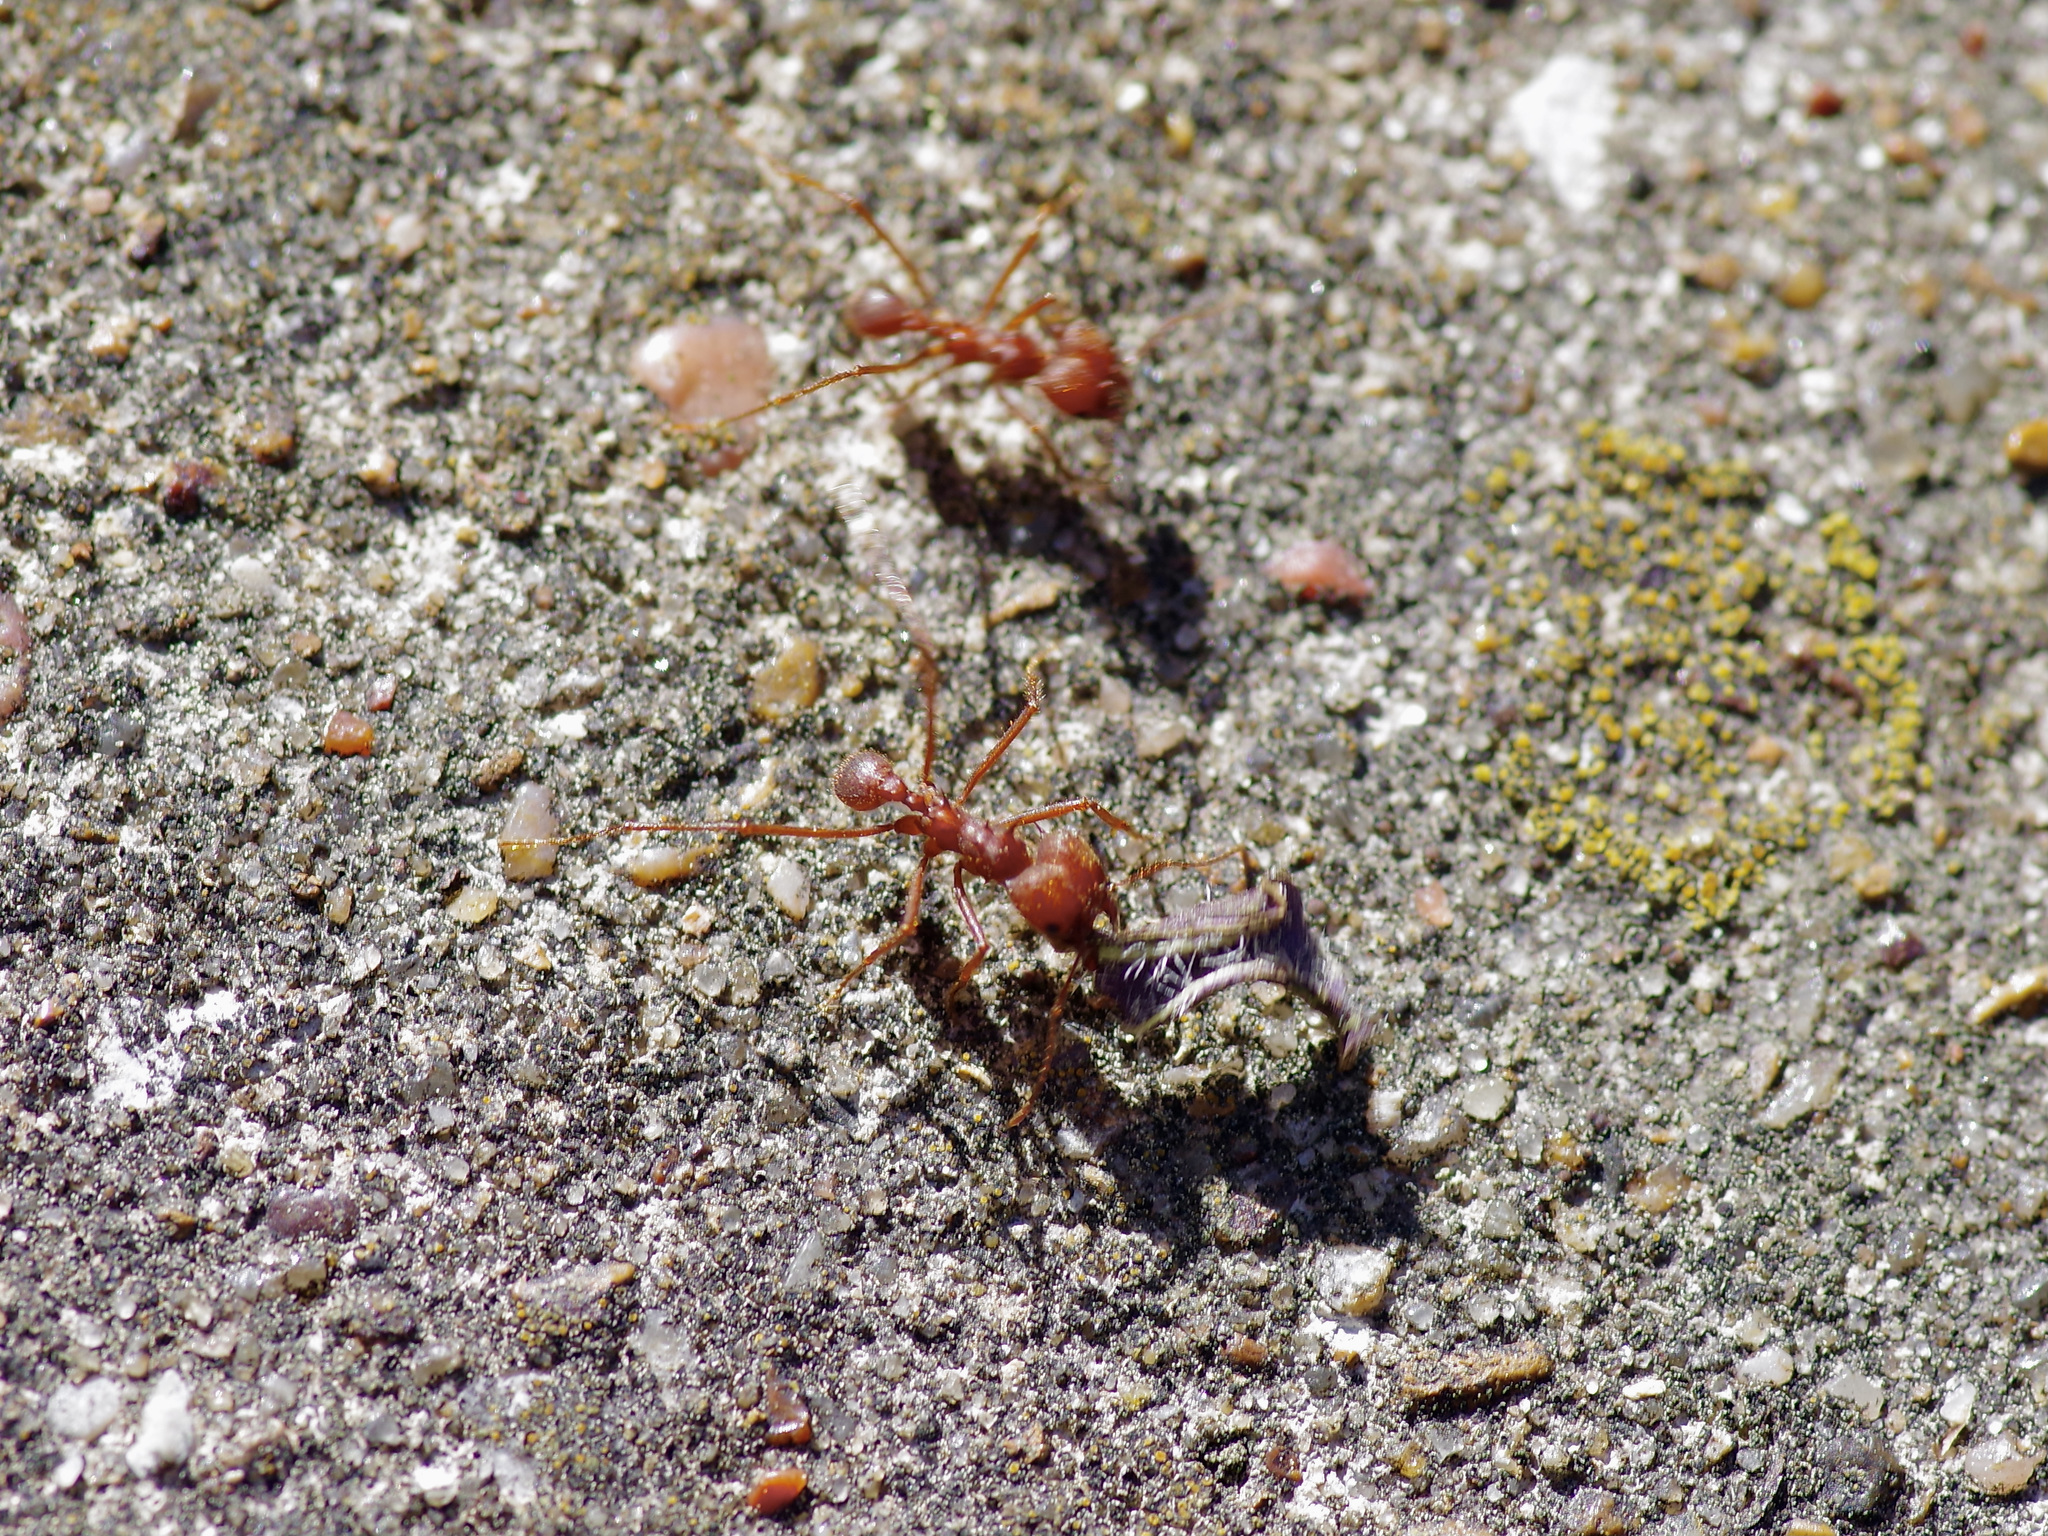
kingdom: Animalia
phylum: Arthropoda
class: Insecta
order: Hymenoptera
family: Formicidae
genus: Atta
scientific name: Atta texana
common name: Texas leafcutting ant
